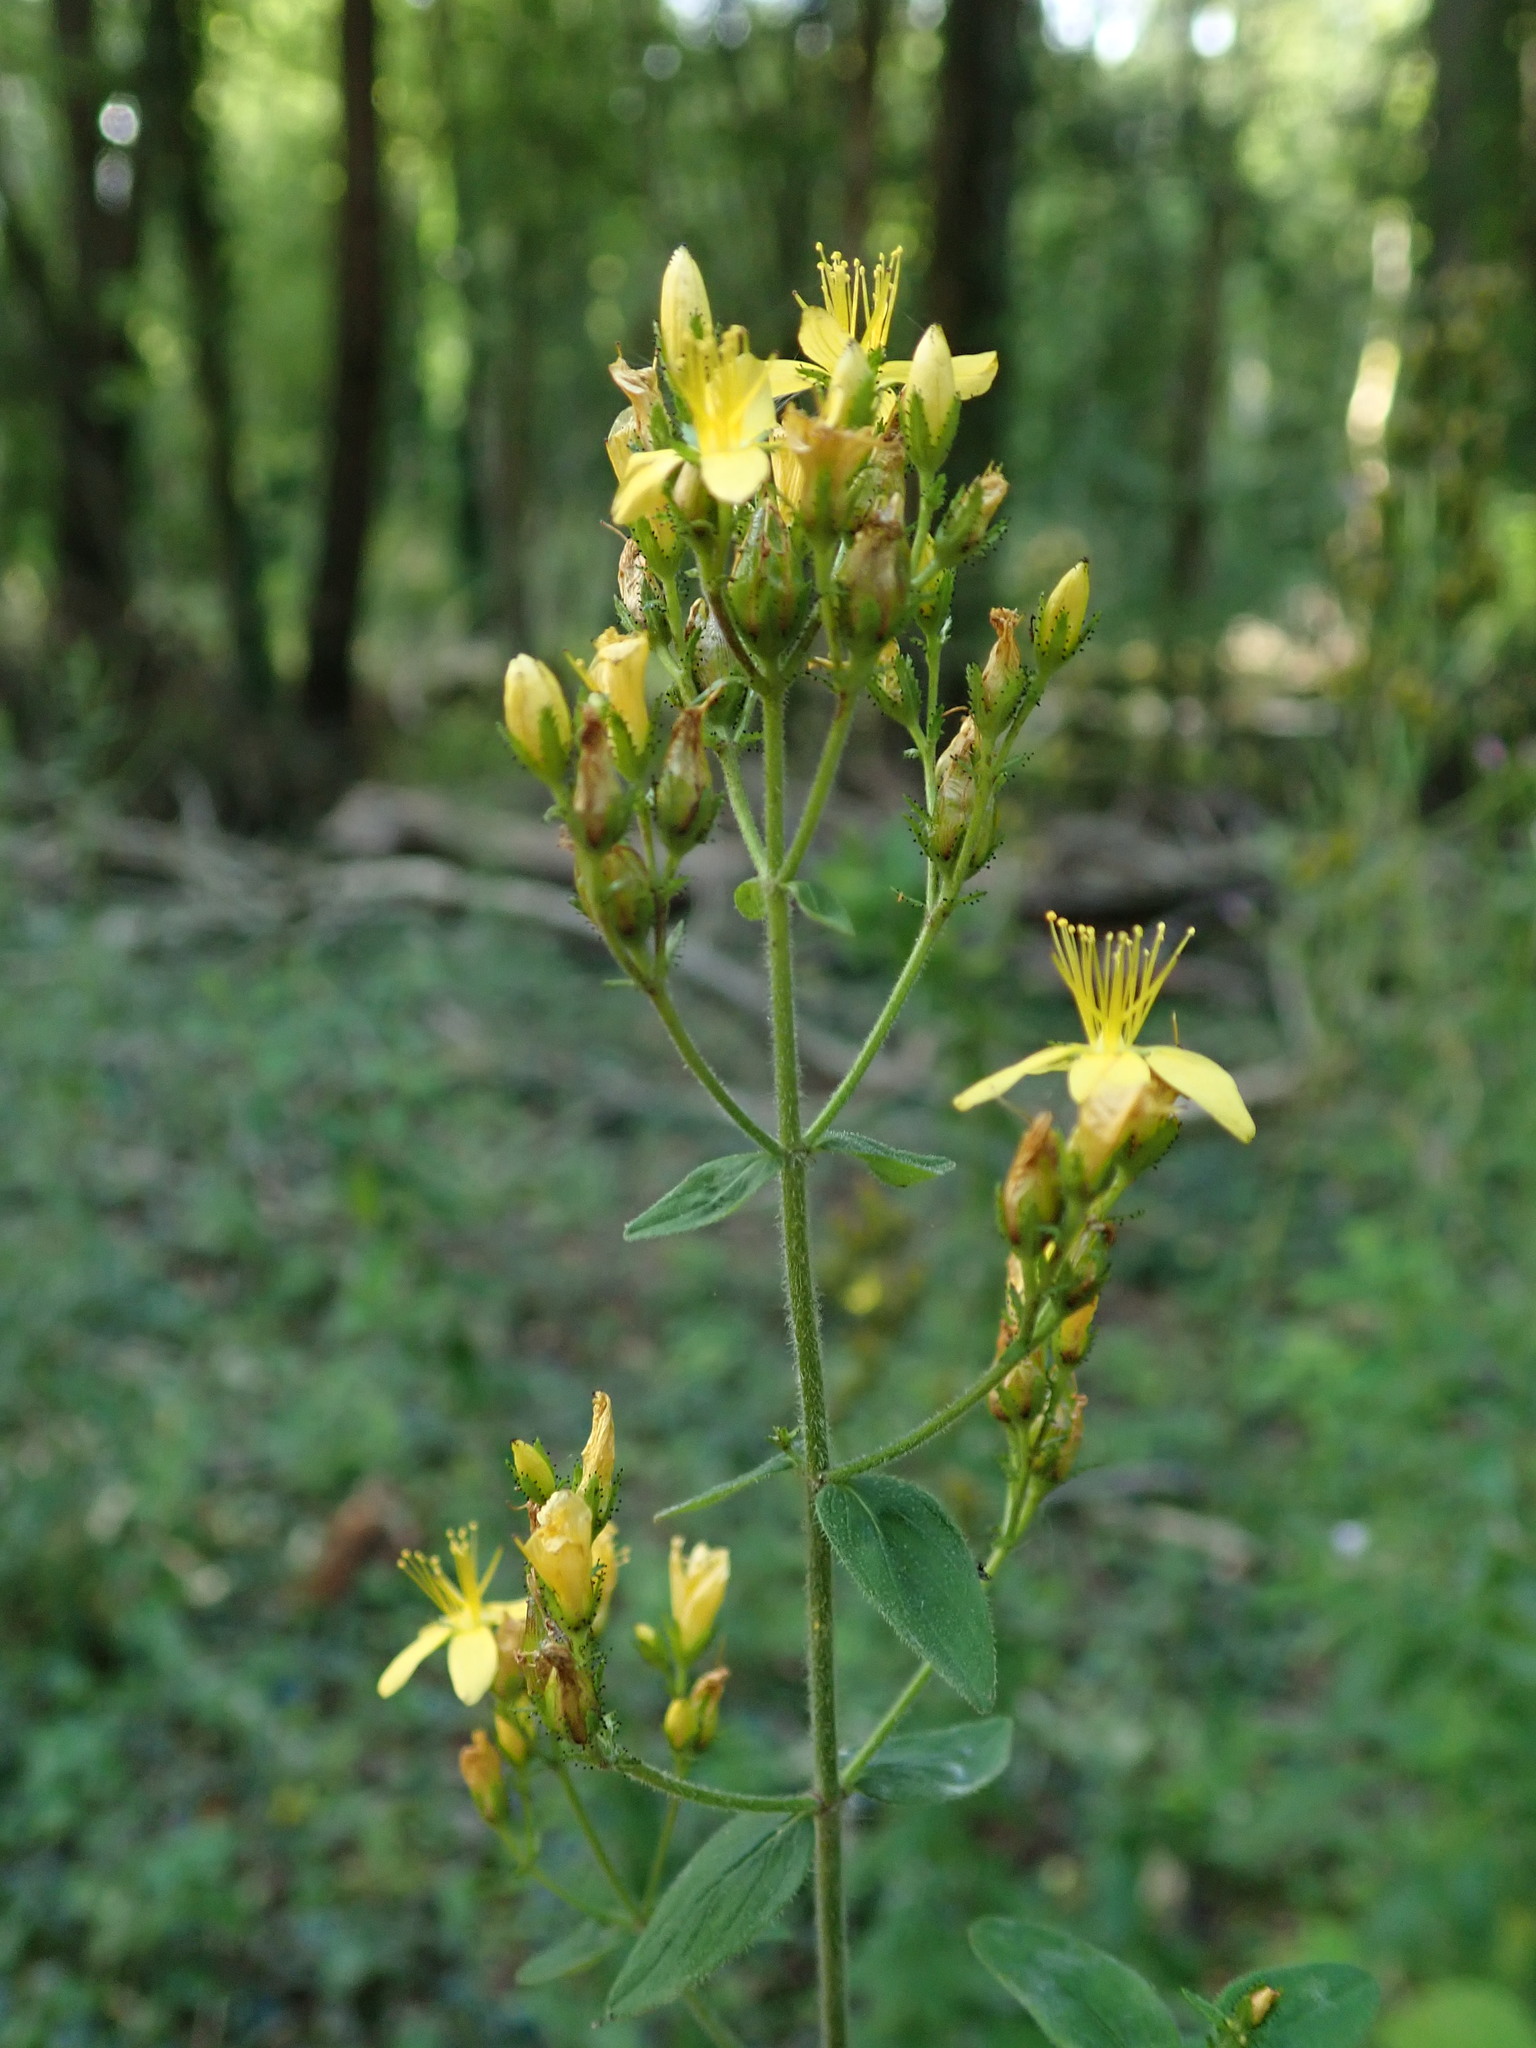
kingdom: Plantae
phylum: Tracheophyta
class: Magnoliopsida
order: Malpighiales
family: Hypericaceae
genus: Hypericum
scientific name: Hypericum hirsutum
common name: Hairy st. john's-wort
